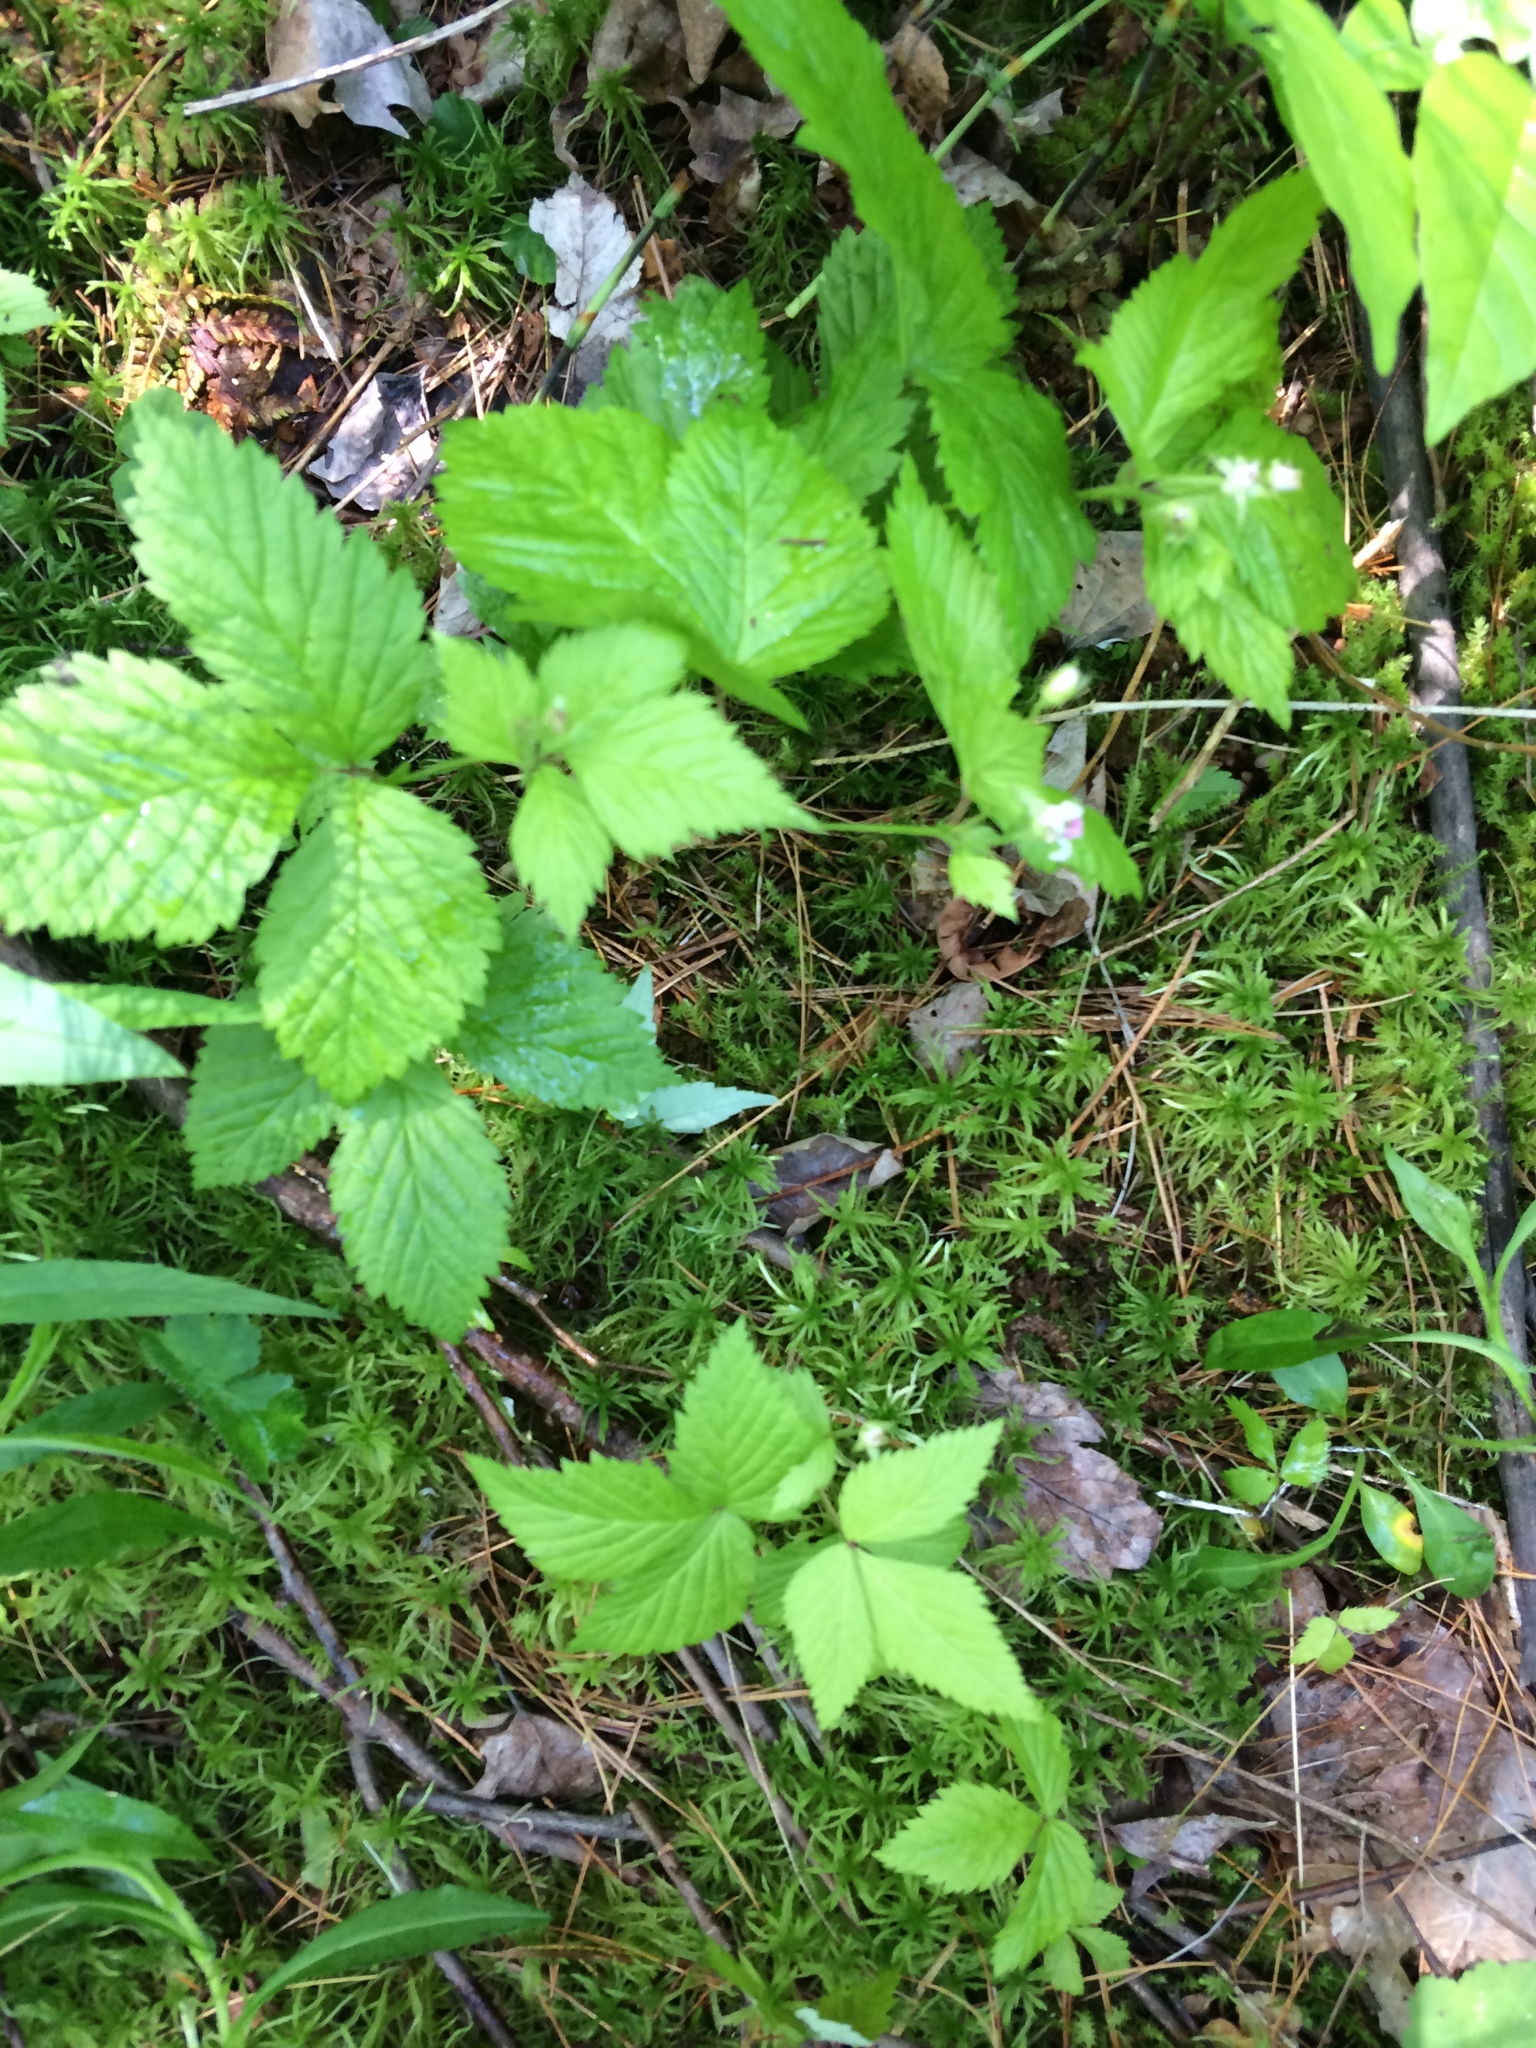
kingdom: Plantae
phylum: Tracheophyta
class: Magnoliopsida
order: Rosales
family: Rosaceae
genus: Rubus
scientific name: Rubus pubescens
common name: Dwarf raspberry
